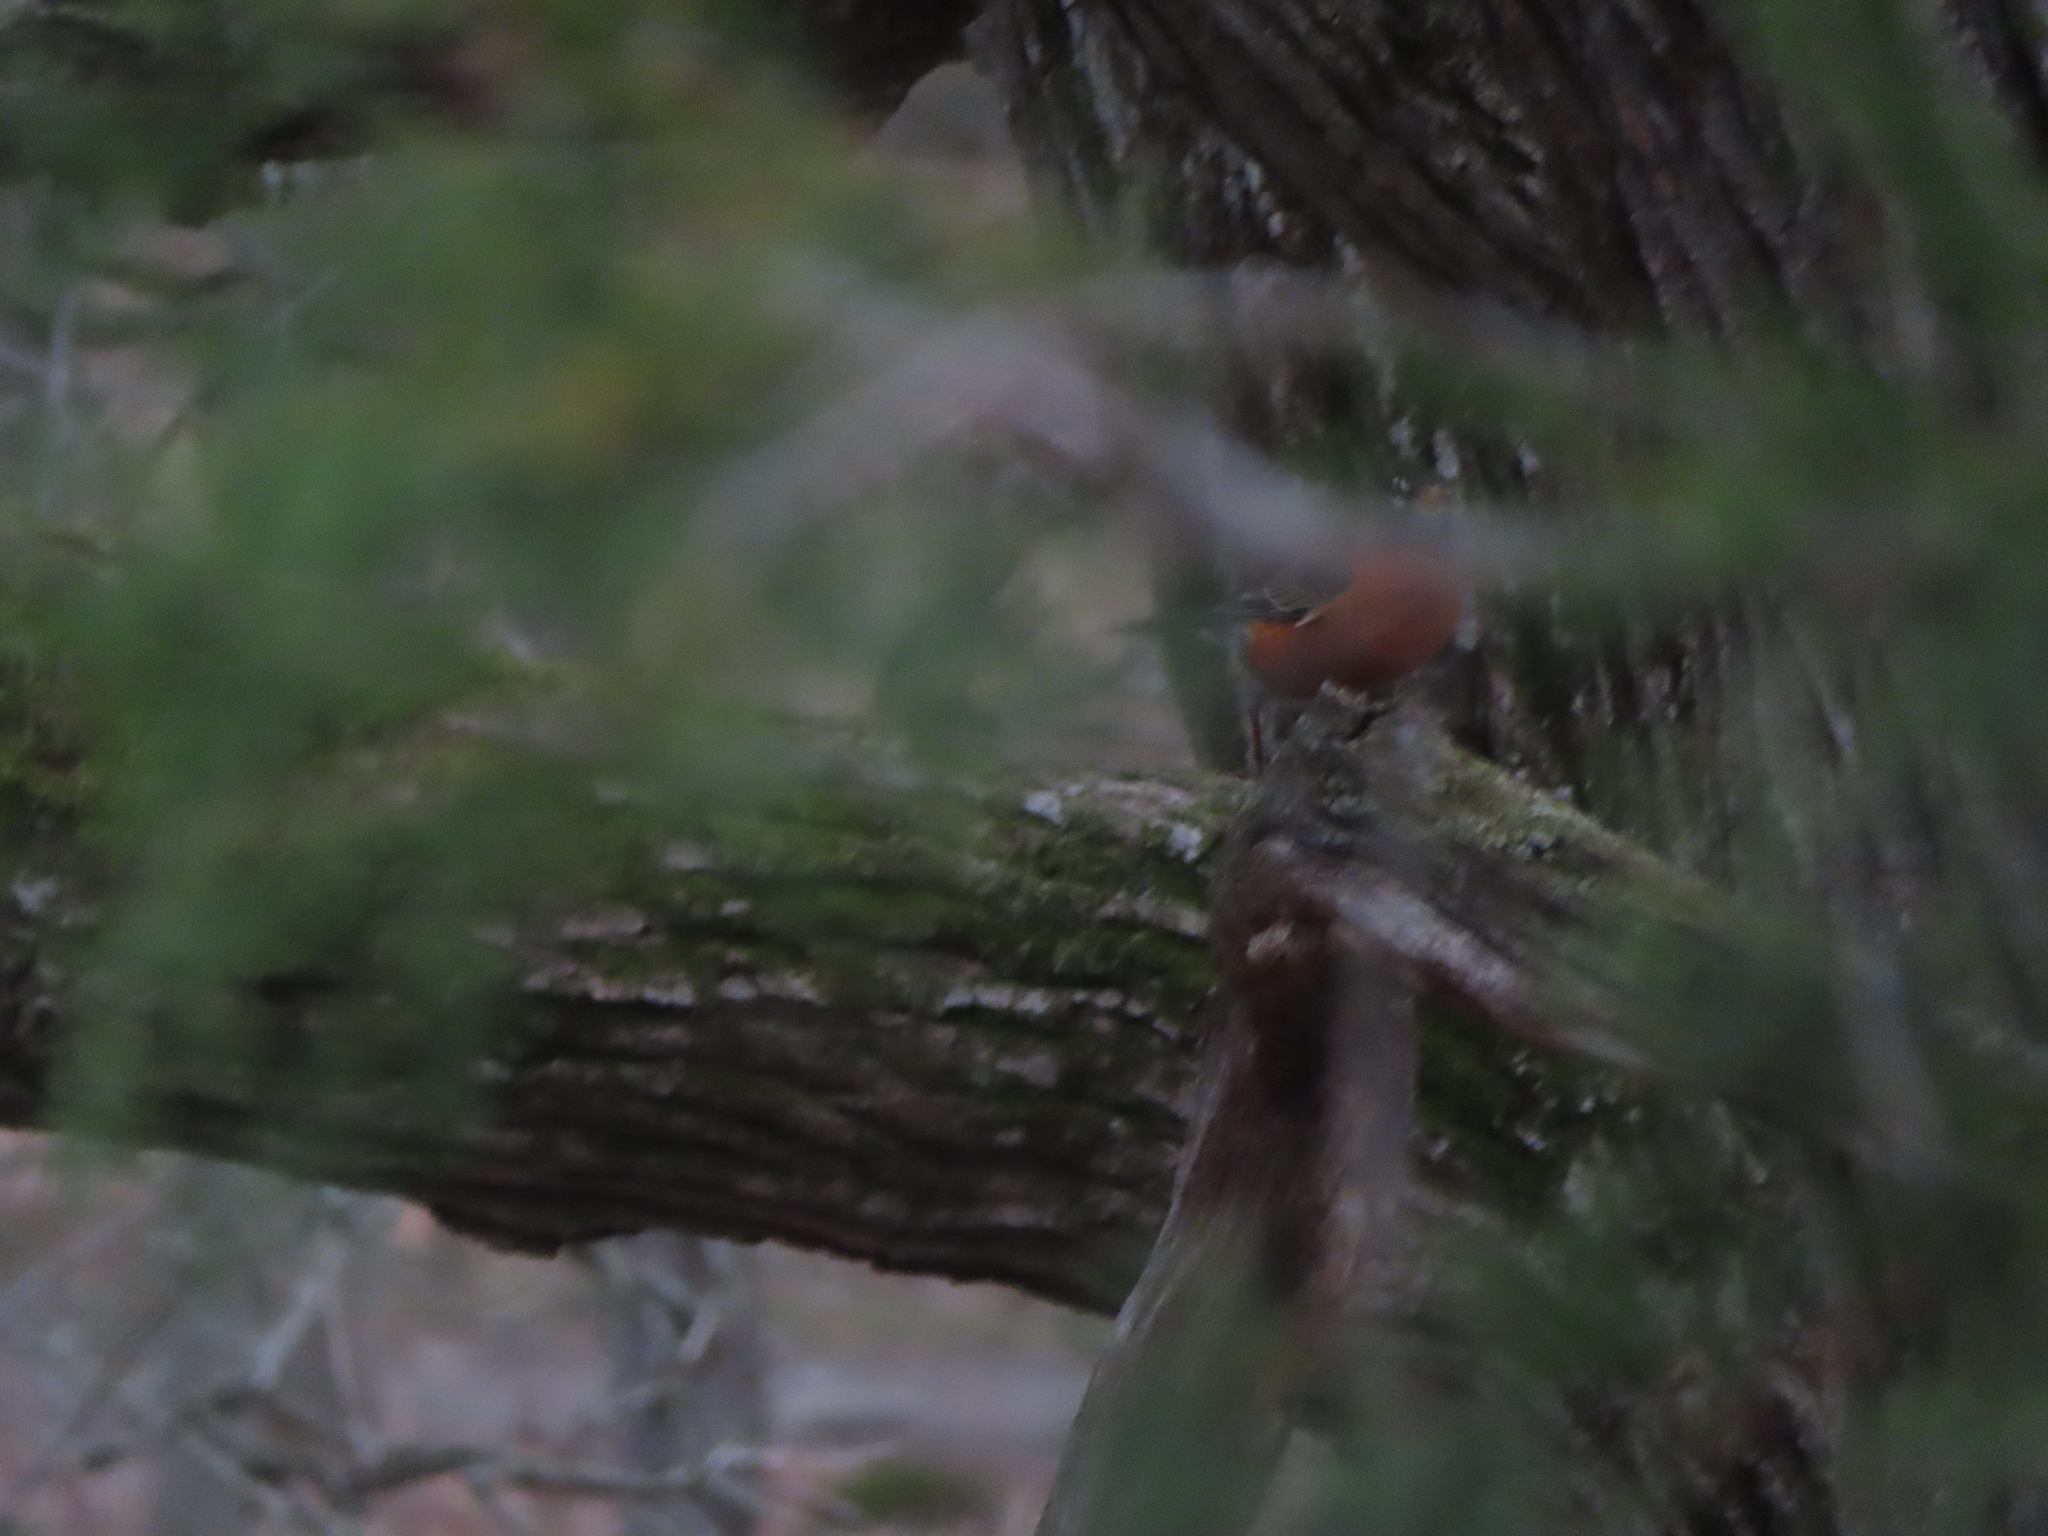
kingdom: Animalia
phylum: Chordata
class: Aves
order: Passeriformes
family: Turdidae
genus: Turdus
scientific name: Turdus migratorius
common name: American robin
